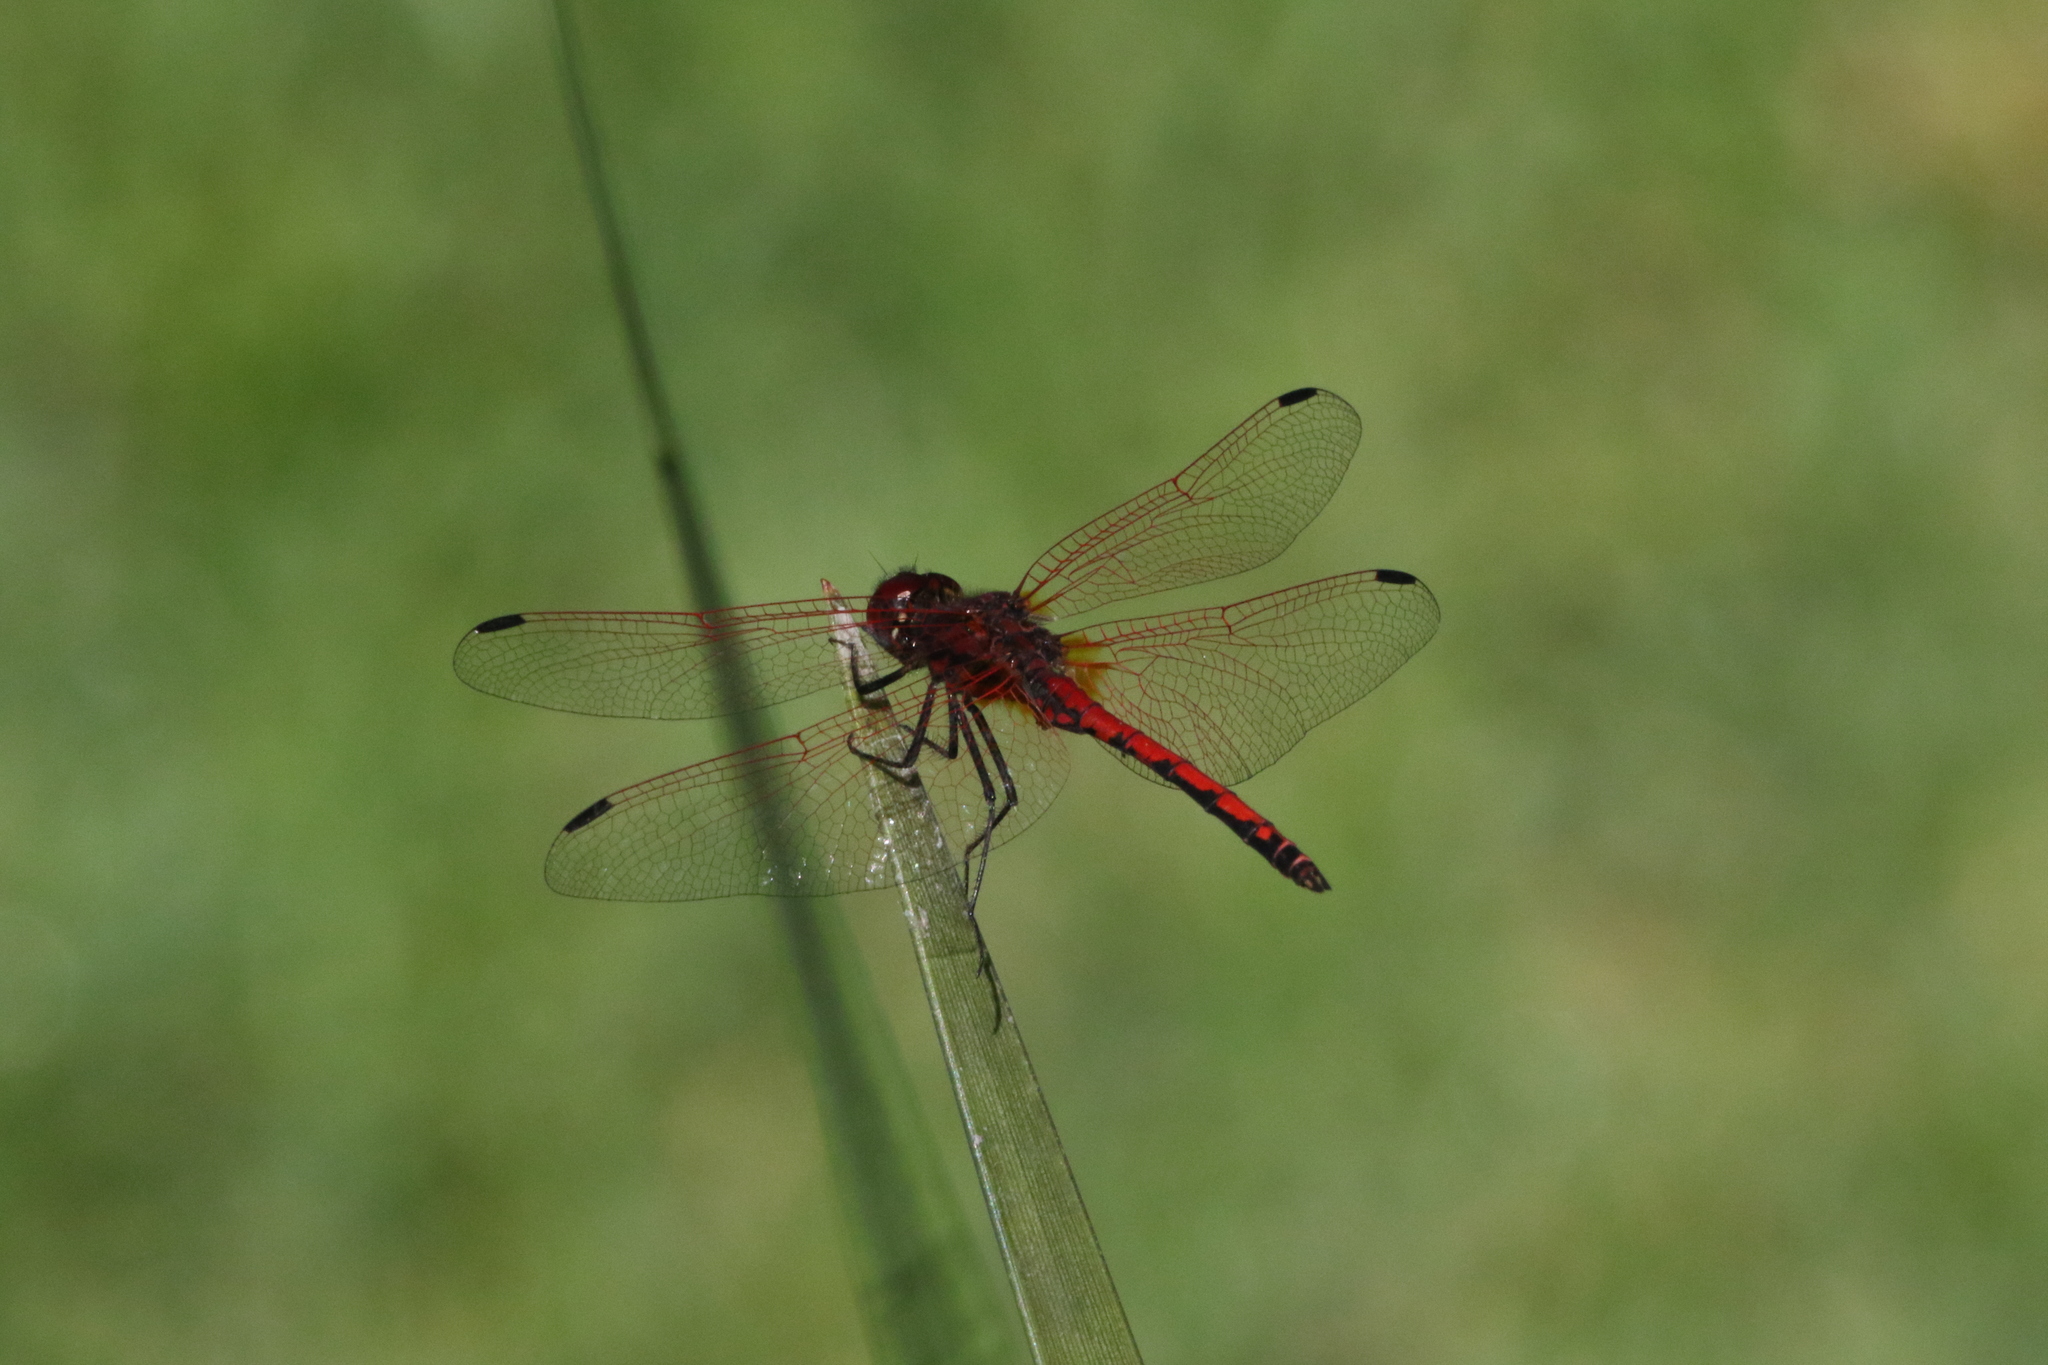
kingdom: Animalia
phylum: Arthropoda
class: Insecta
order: Odonata
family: Libellulidae
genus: Trithemis
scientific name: Trithemis arteriosa
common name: Red-veined dropwing
